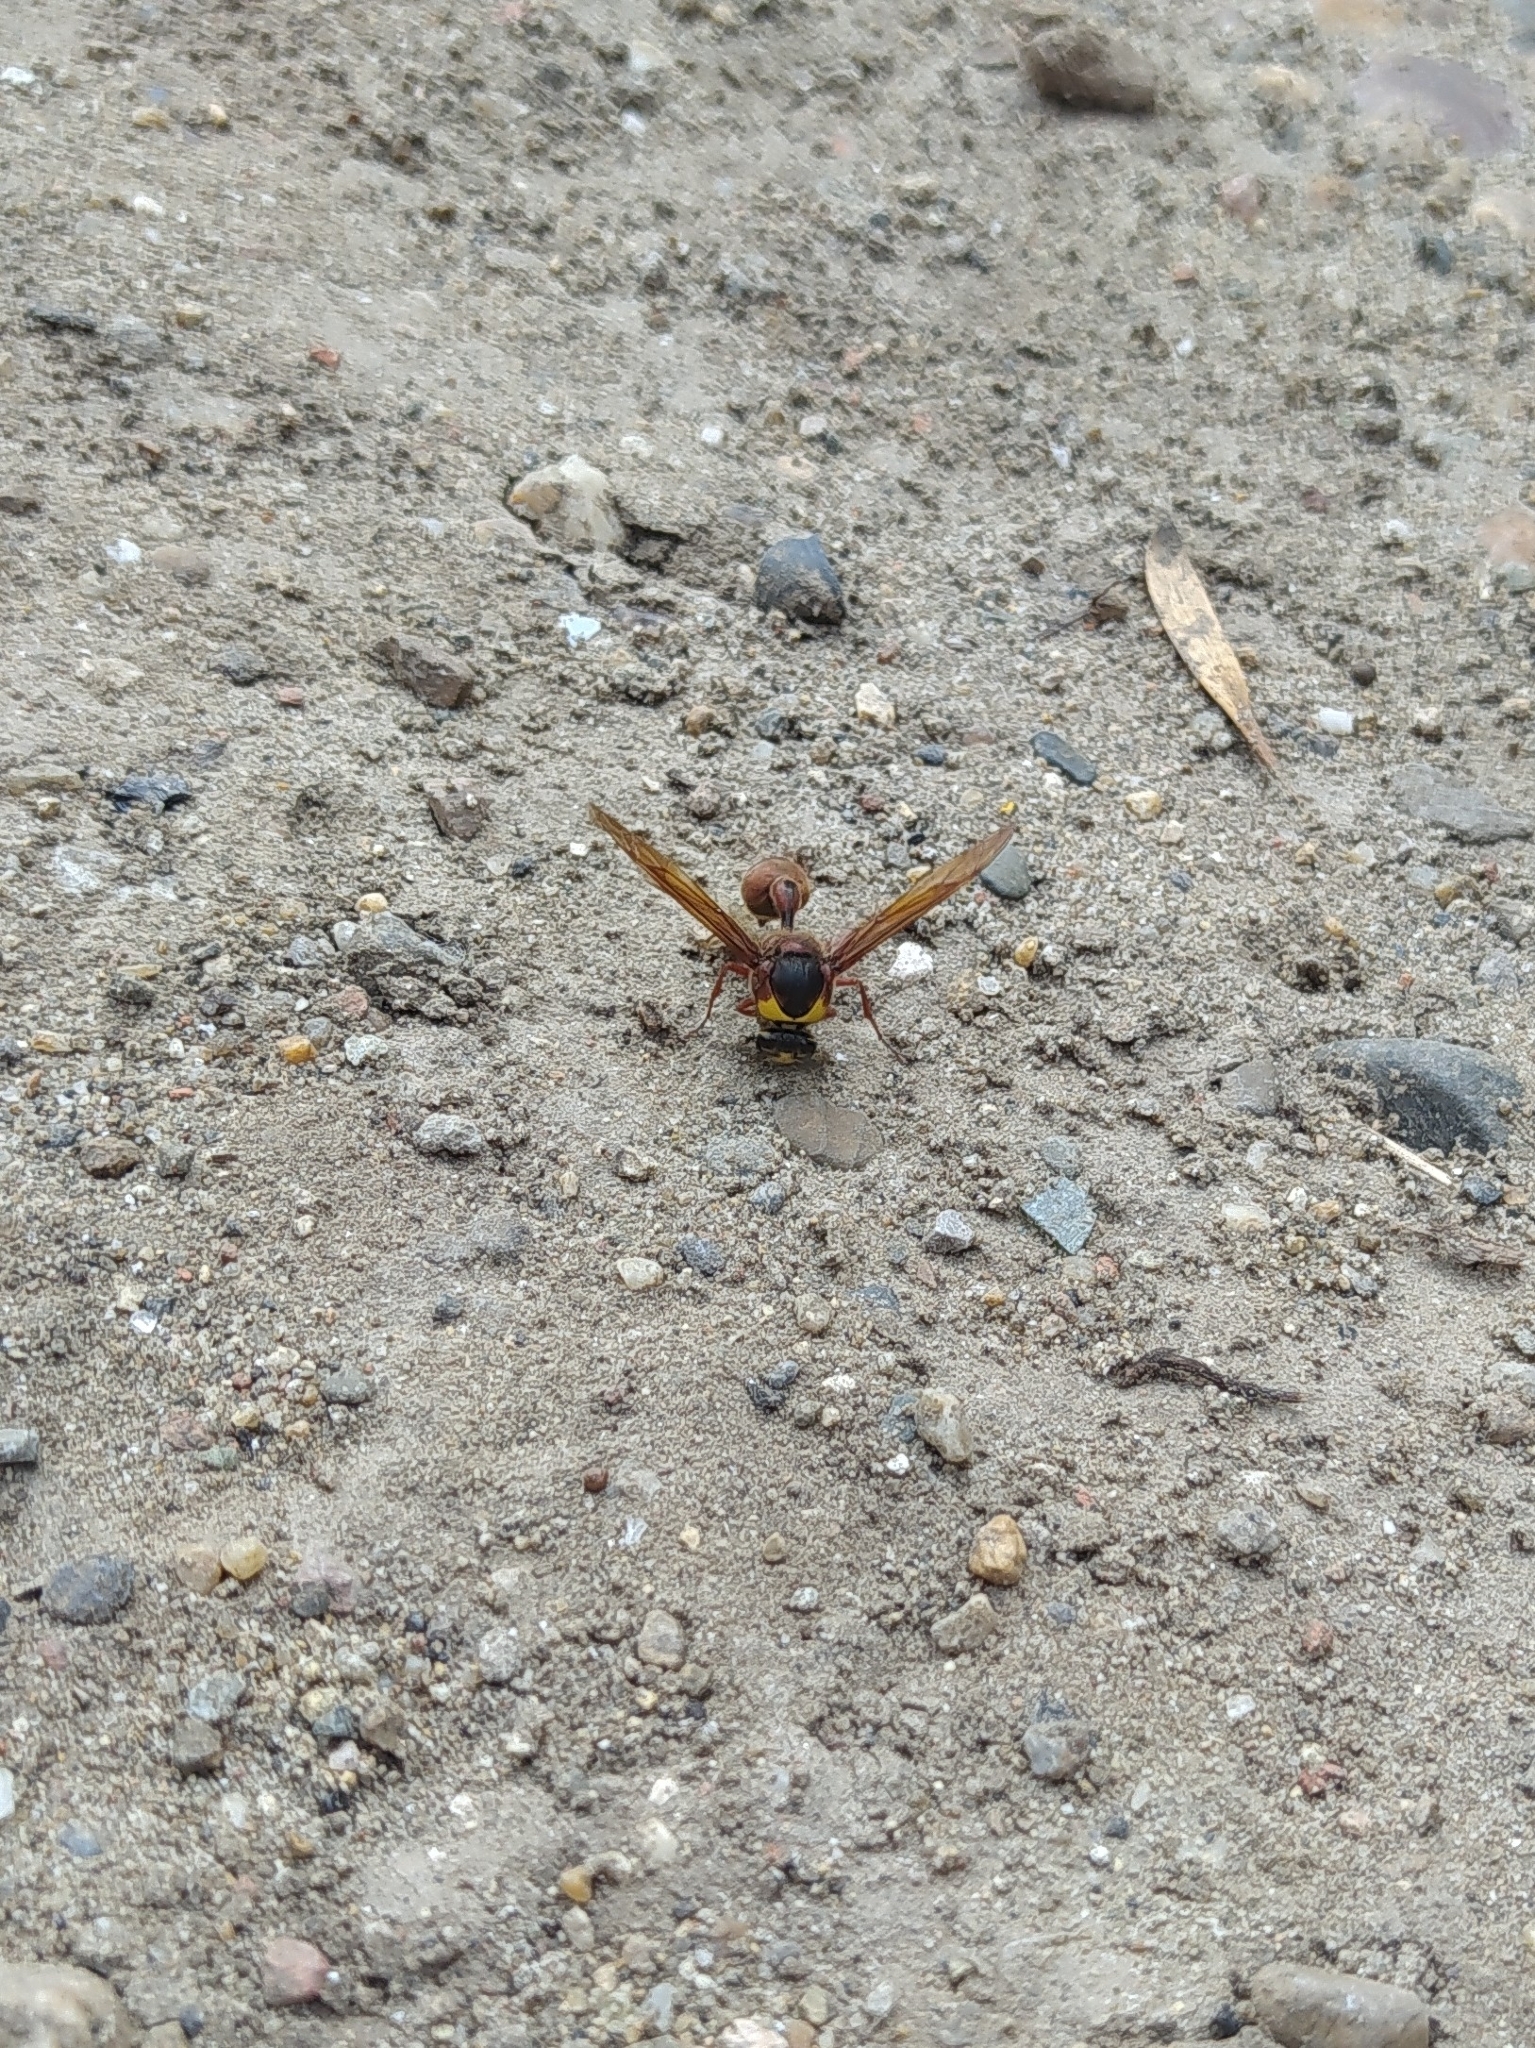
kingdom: Animalia
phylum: Arthropoda
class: Insecta
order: Hymenoptera
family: Eumenidae
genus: Delta
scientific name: Delta unguiculatum
